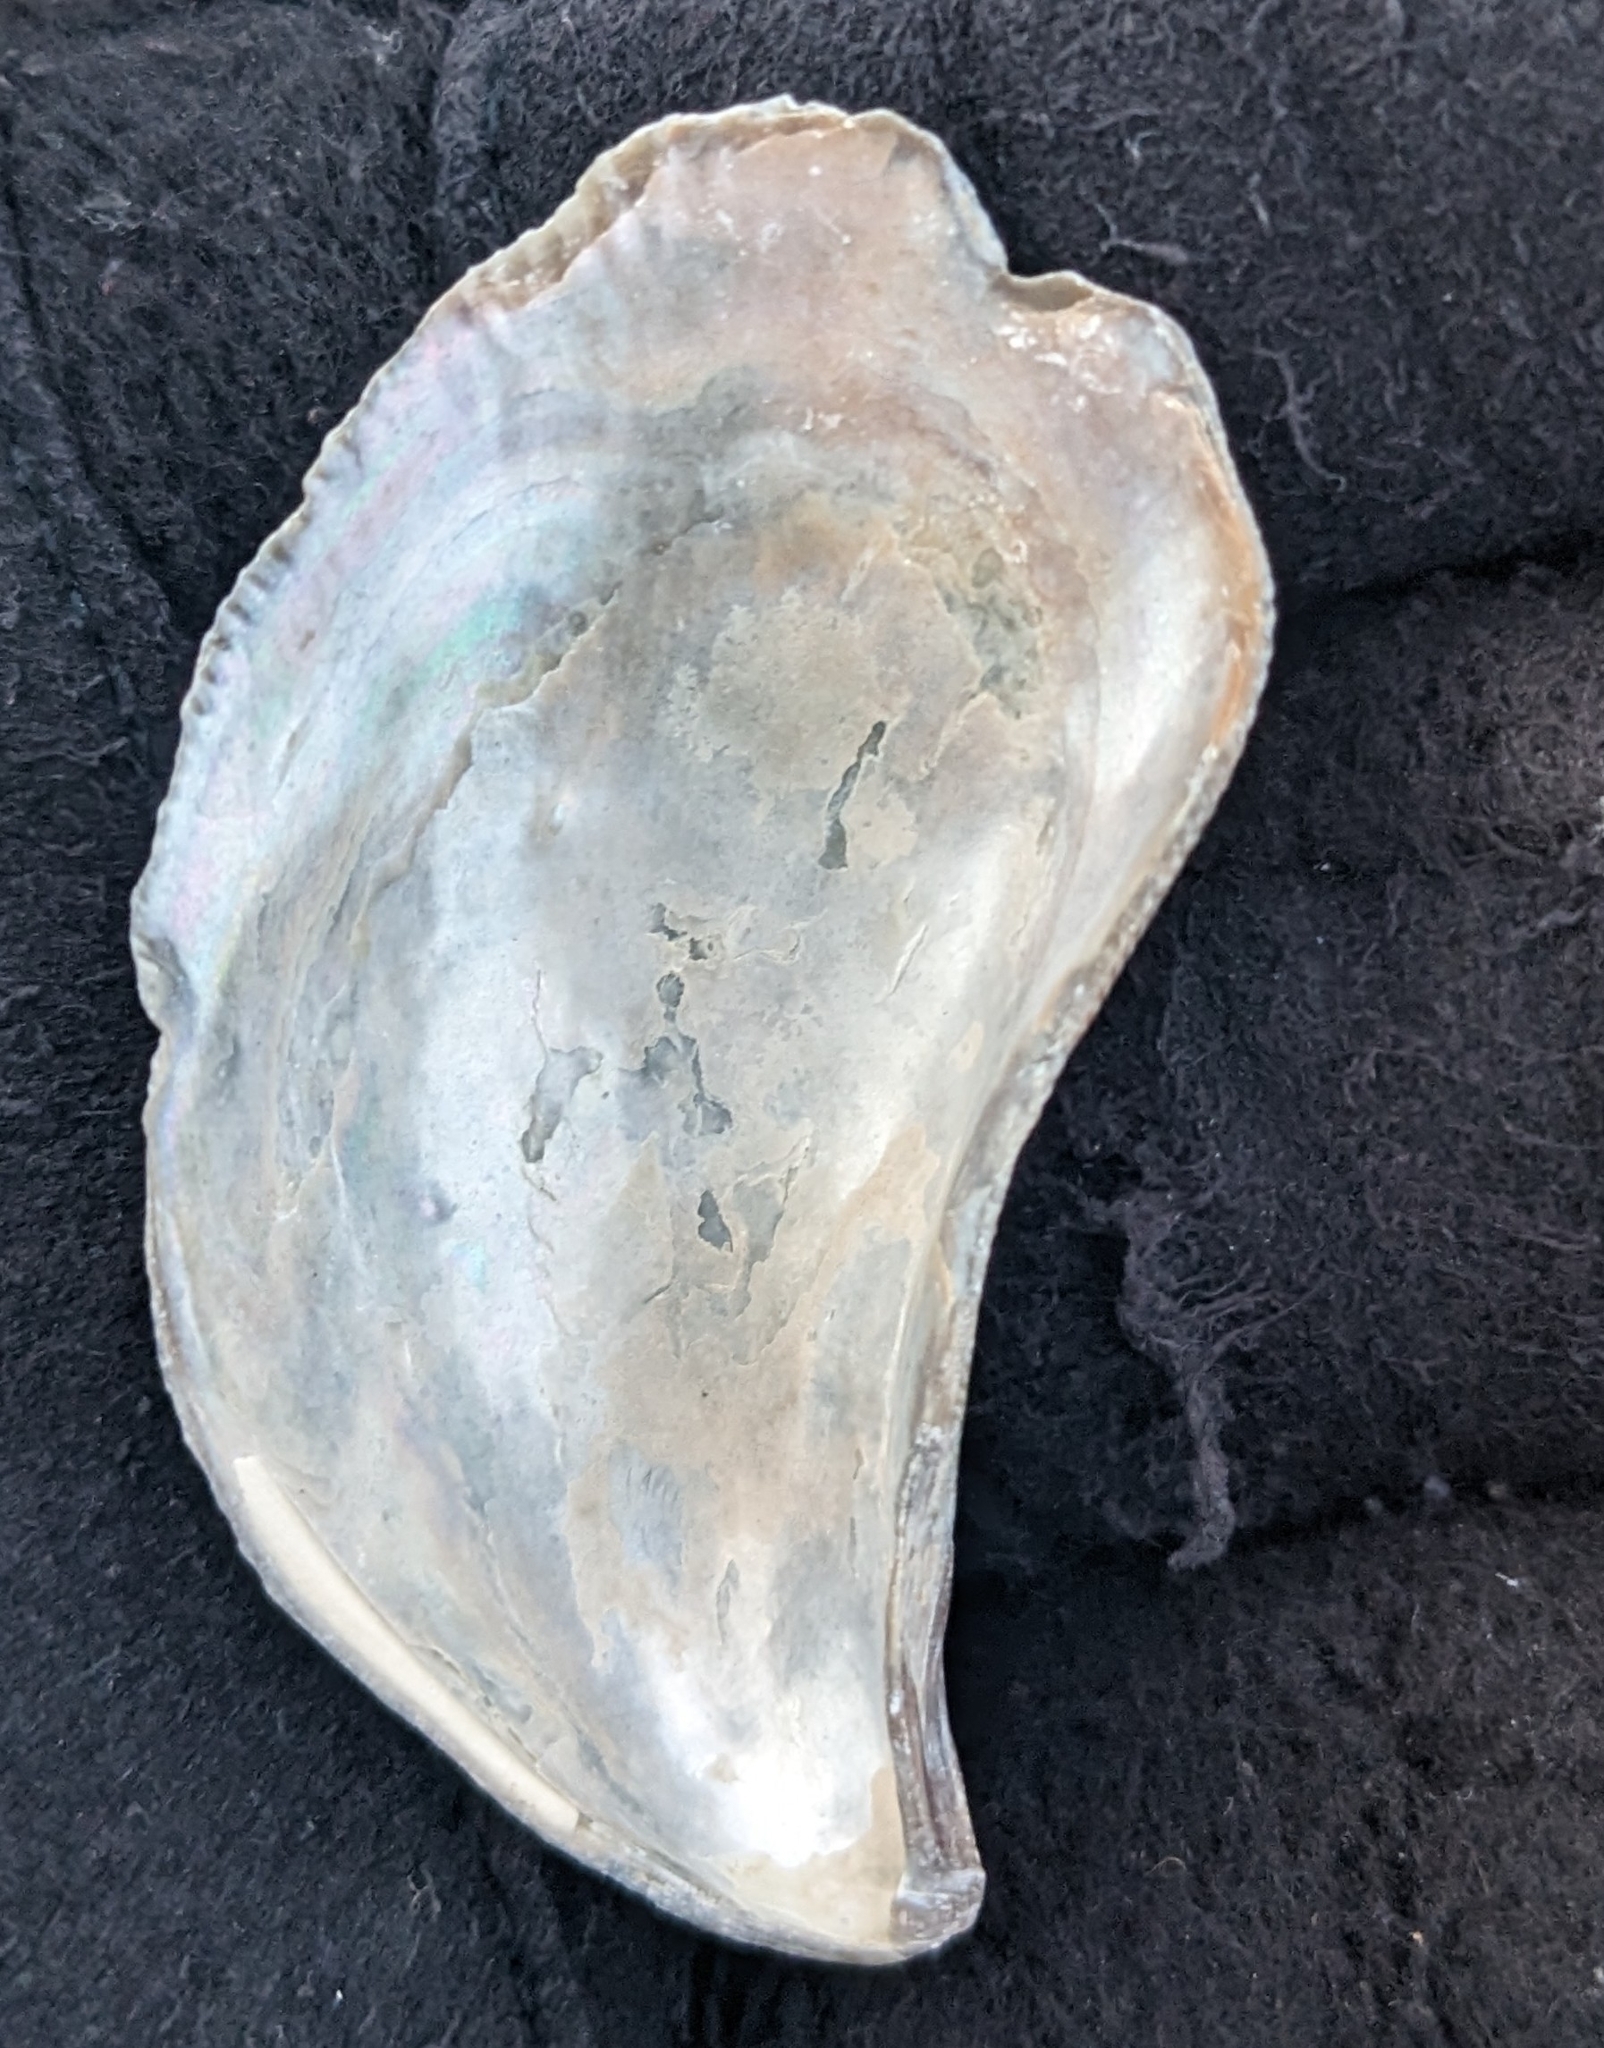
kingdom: Animalia
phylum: Mollusca
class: Bivalvia
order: Mytilida
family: Mytilidae
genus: Ischadium
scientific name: Ischadium recurvum
